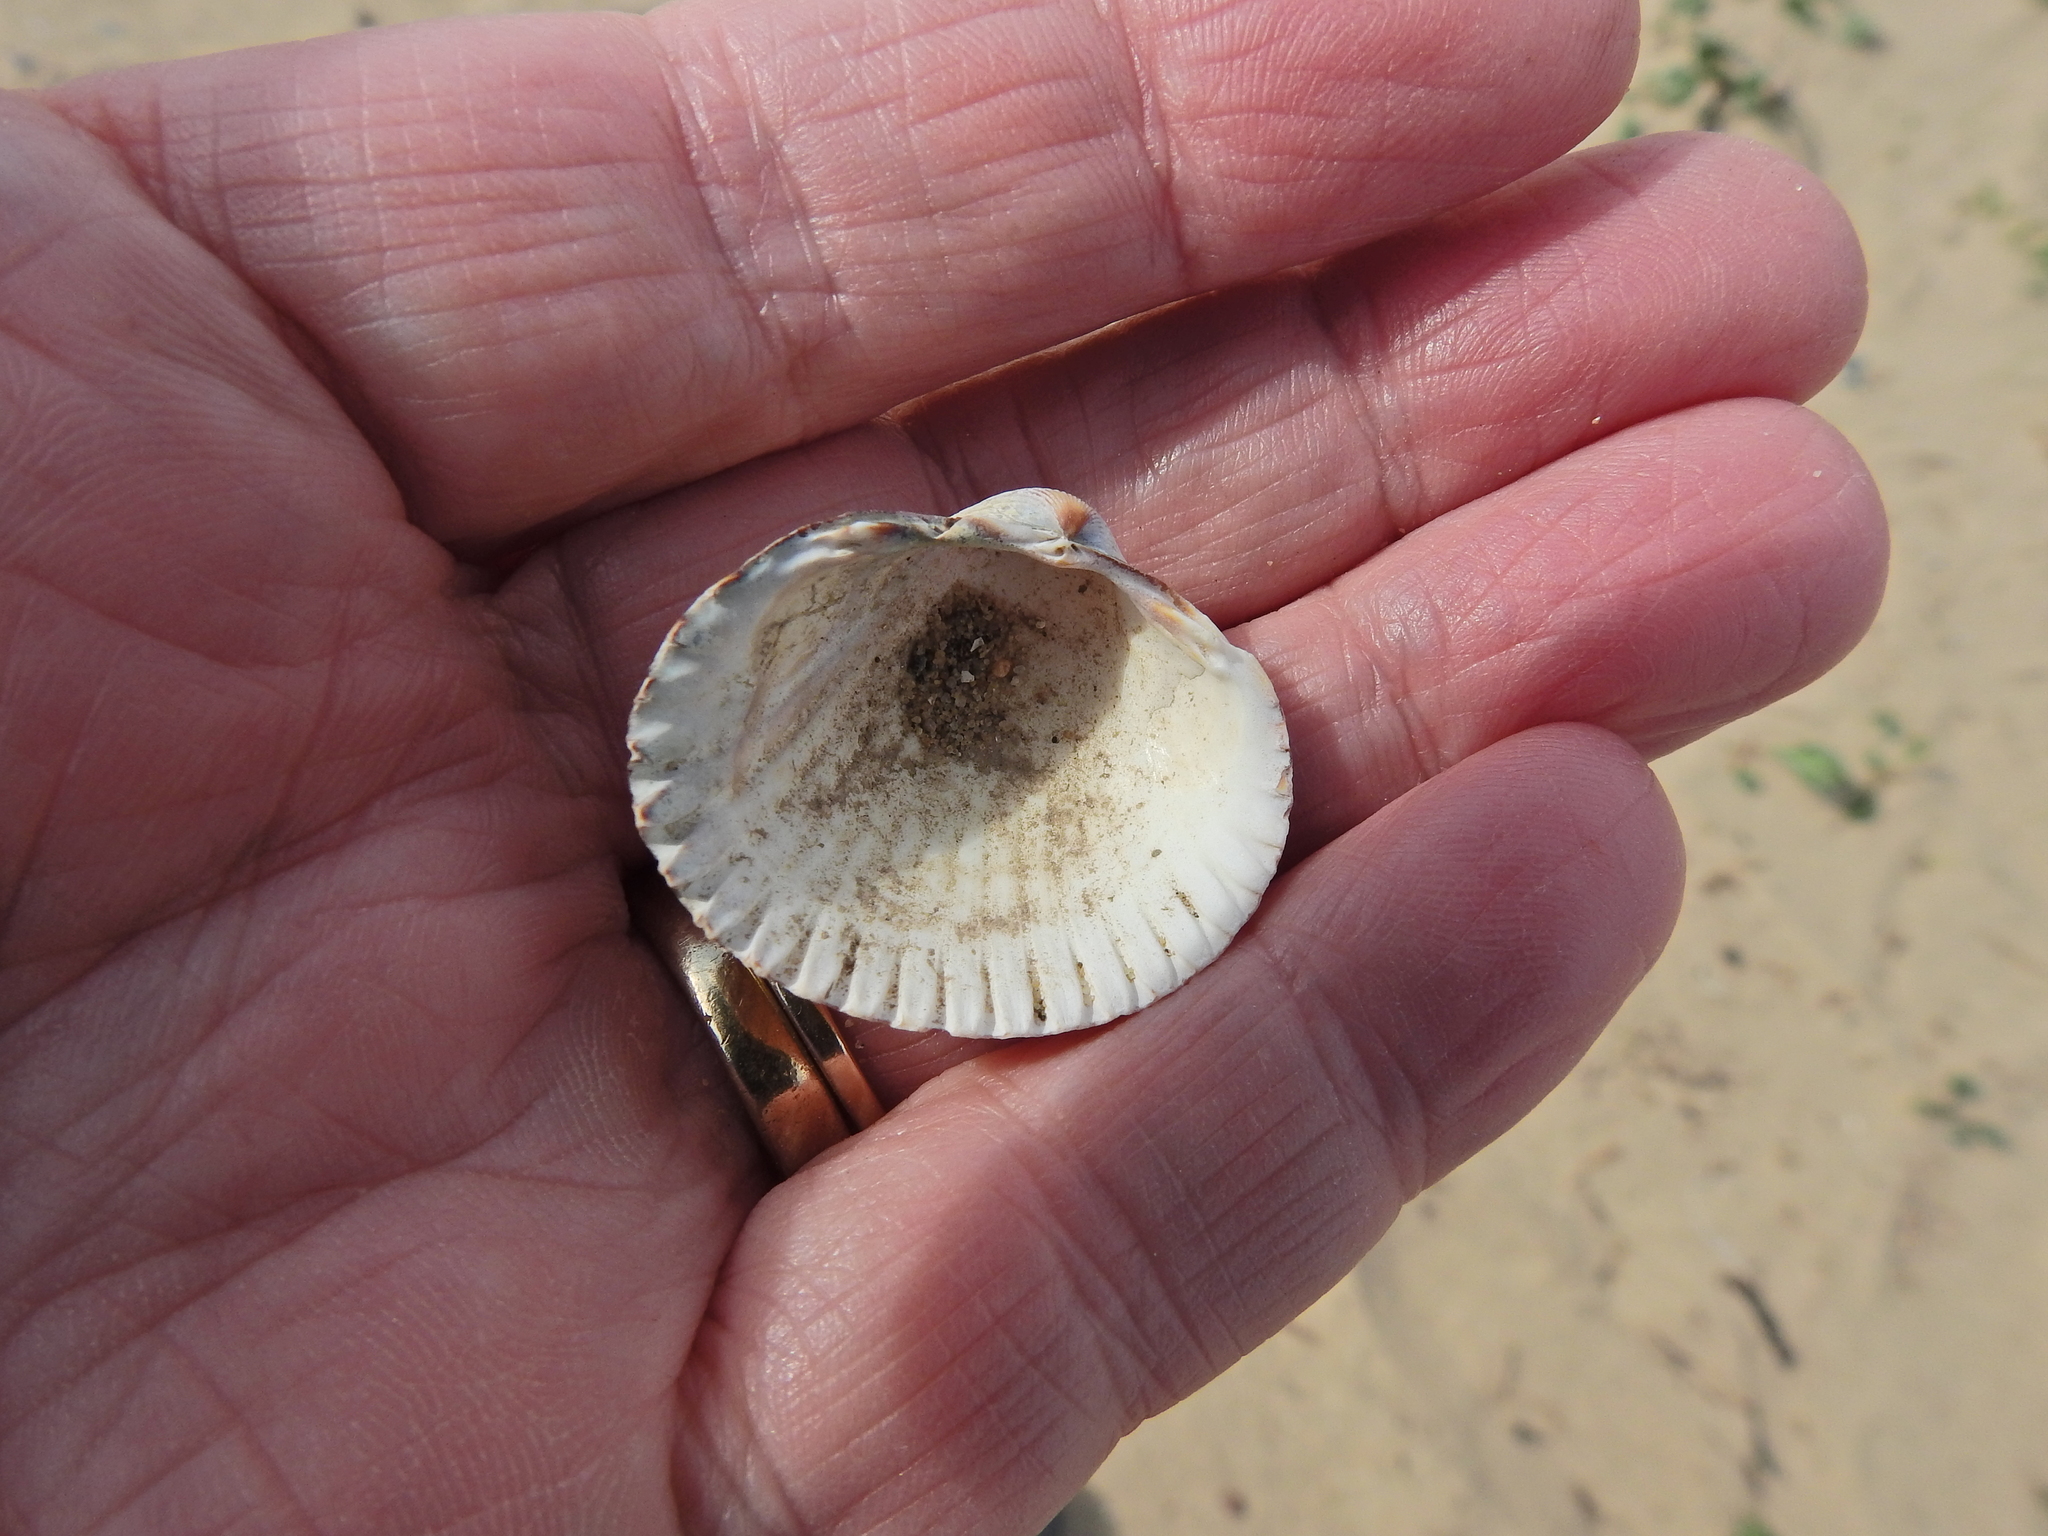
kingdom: Animalia
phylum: Mollusca
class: Bivalvia
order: Cardiida
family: Cardiidae
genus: Cerastoderma
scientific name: Cerastoderma edule
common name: Common cockle
